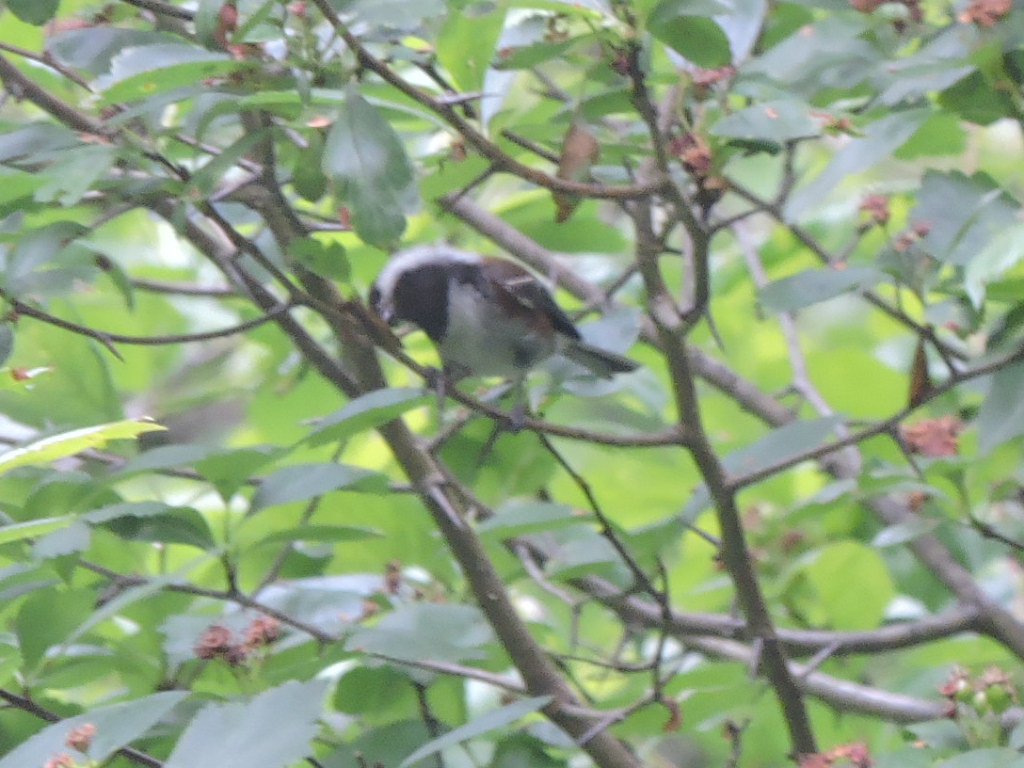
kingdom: Animalia
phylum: Chordata
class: Aves
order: Passeriformes
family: Paridae
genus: Poecile
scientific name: Poecile rufescens
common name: Chestnut-backed chickadee
